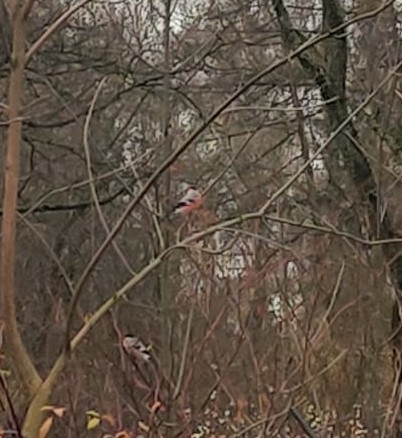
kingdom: Animalia
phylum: Chordata
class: Aves
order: Passeriformes
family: Fringillidae
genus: Pyrrhula
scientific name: Pyrrhula pyrrhula
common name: Eurasian bullfinch
